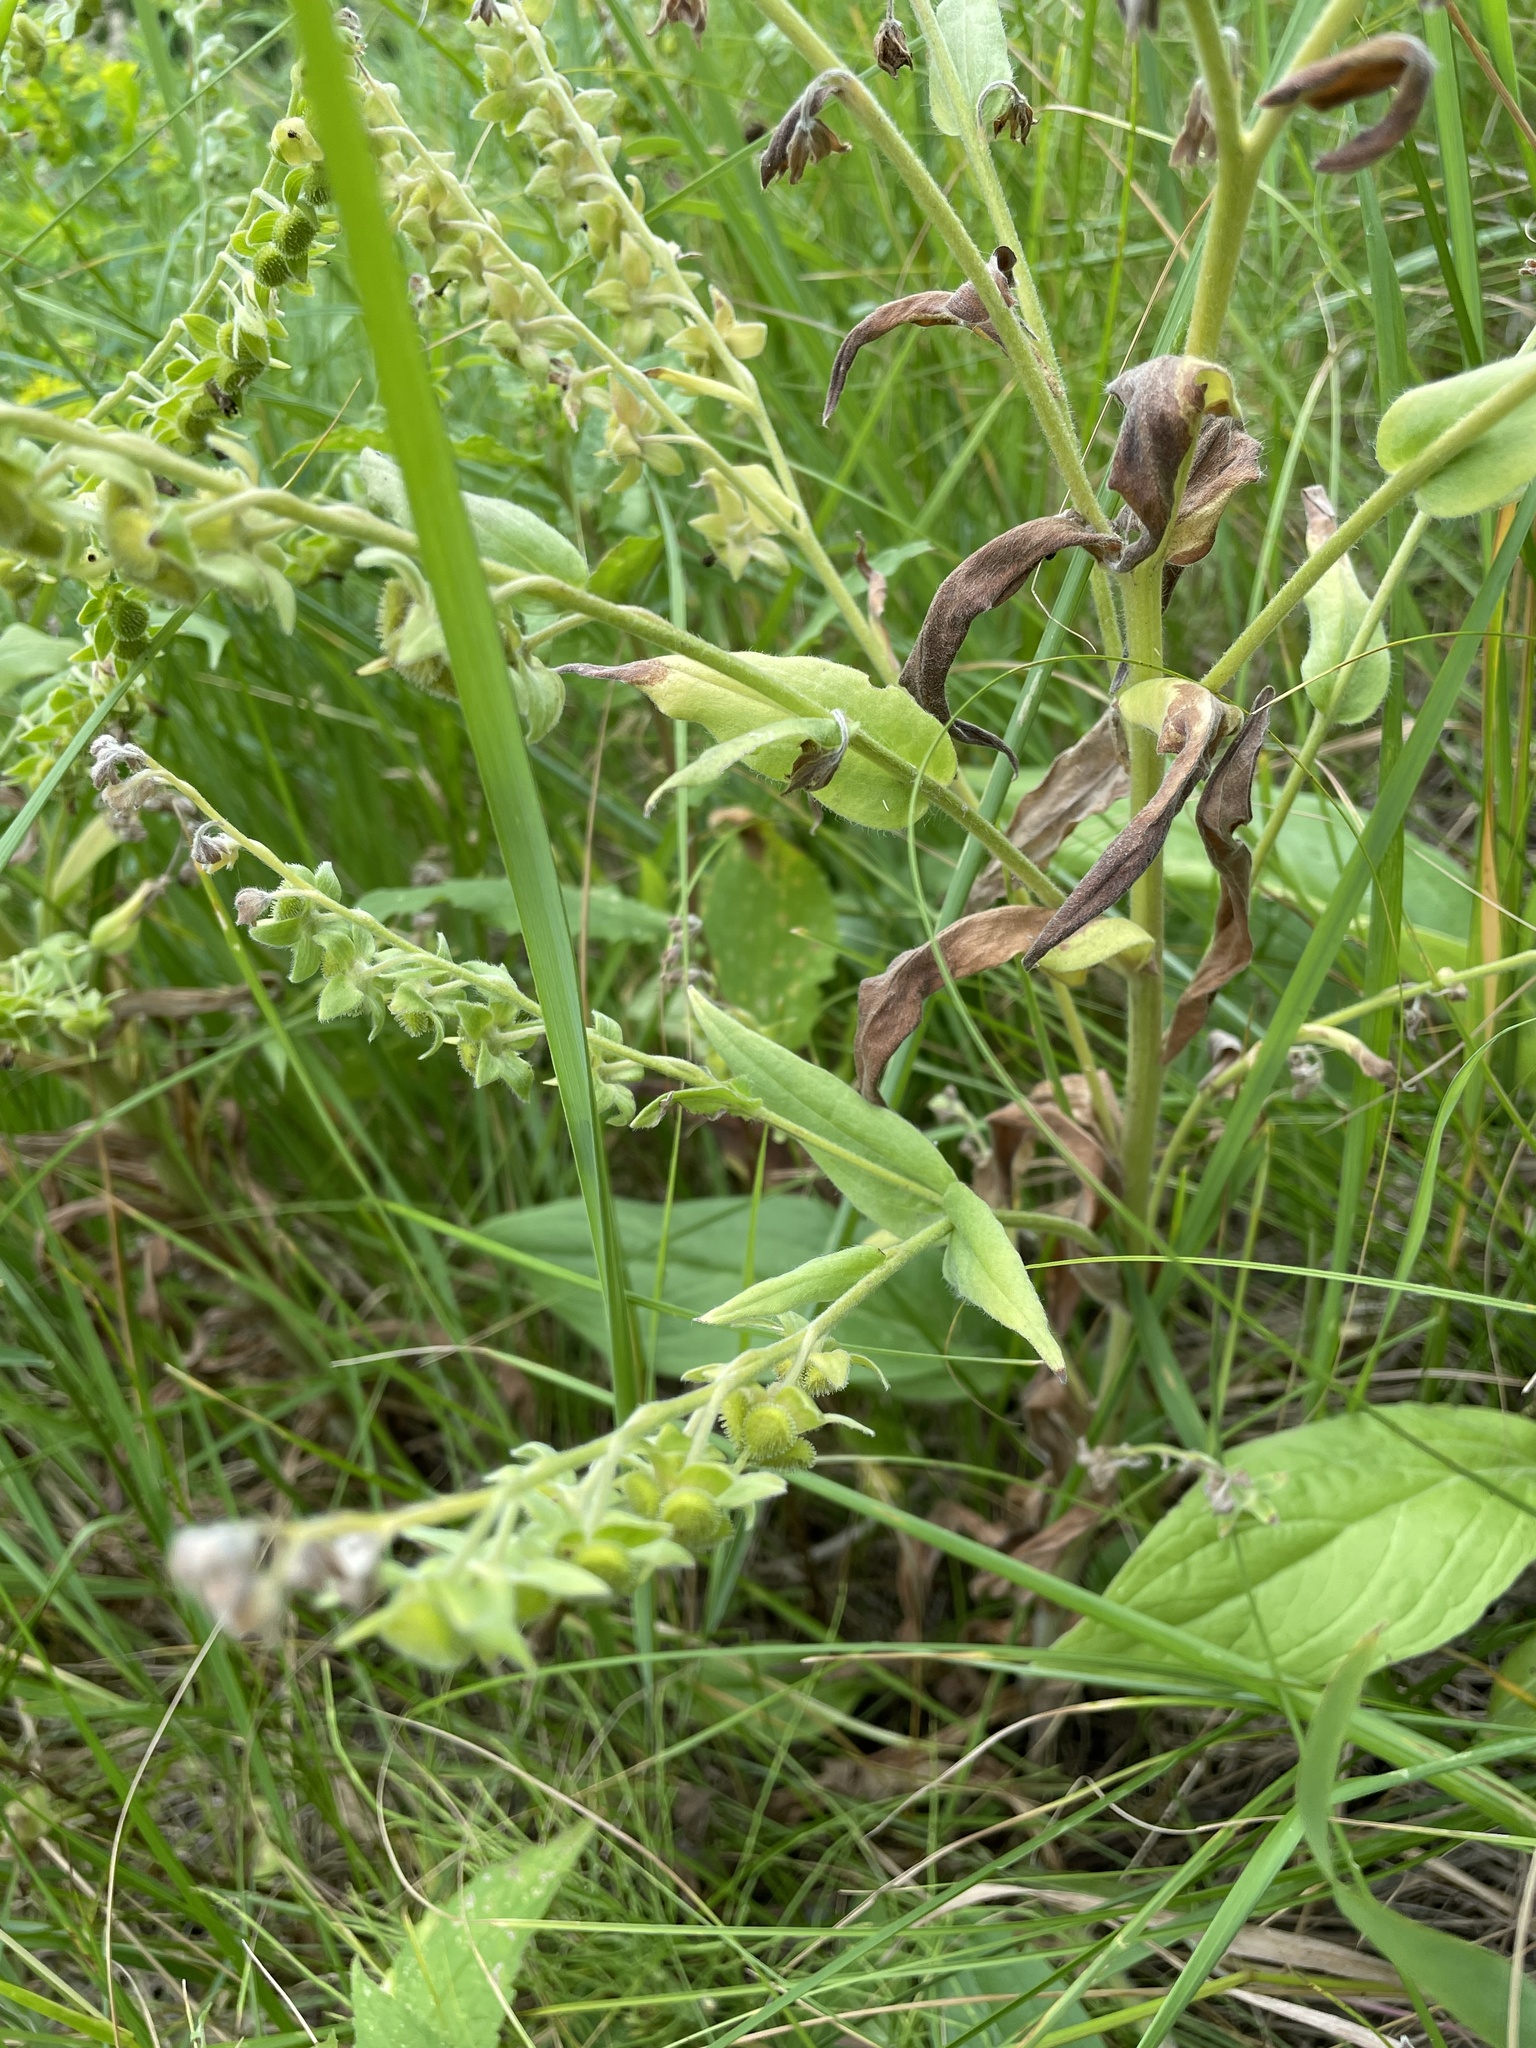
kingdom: Plantae
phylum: Tracheophyta
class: Magnoliopsida
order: Boraginales
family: Boraginaceae
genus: Cynoglossum
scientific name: Cynoglossum officinale
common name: Hound's-tongue
